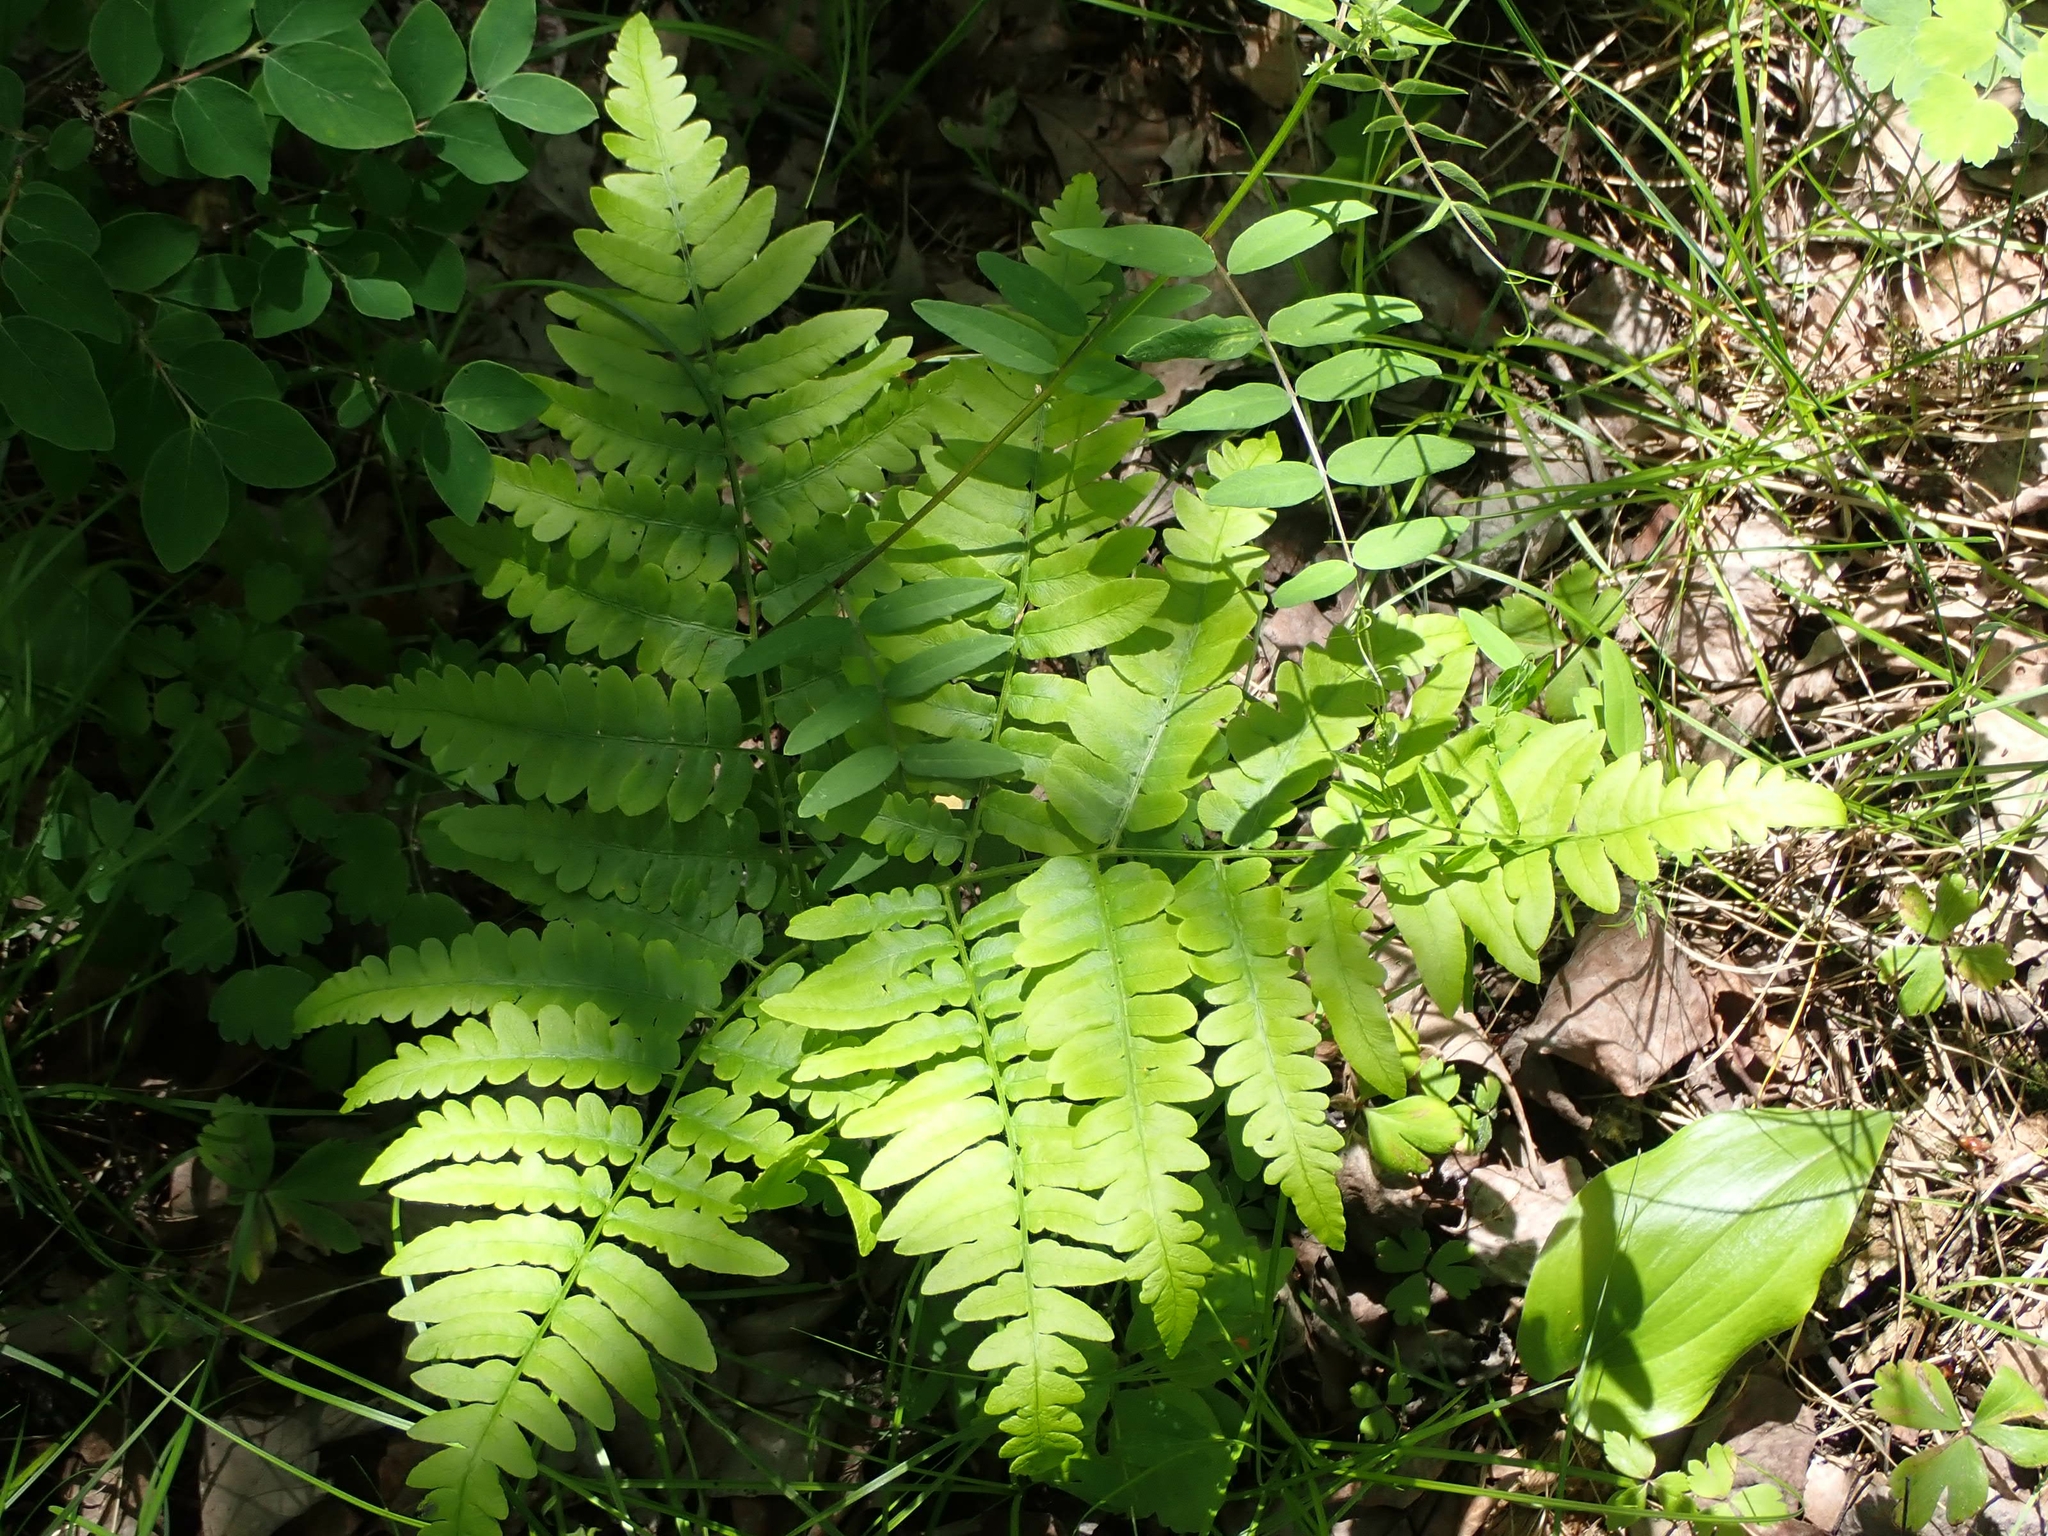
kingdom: Plantae
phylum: Tracheophyta
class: Polypodiopsida
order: Polypodiales
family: Dennstaedtiaceae
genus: Pteridium
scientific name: Pteridium aquilinum
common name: Bracken
